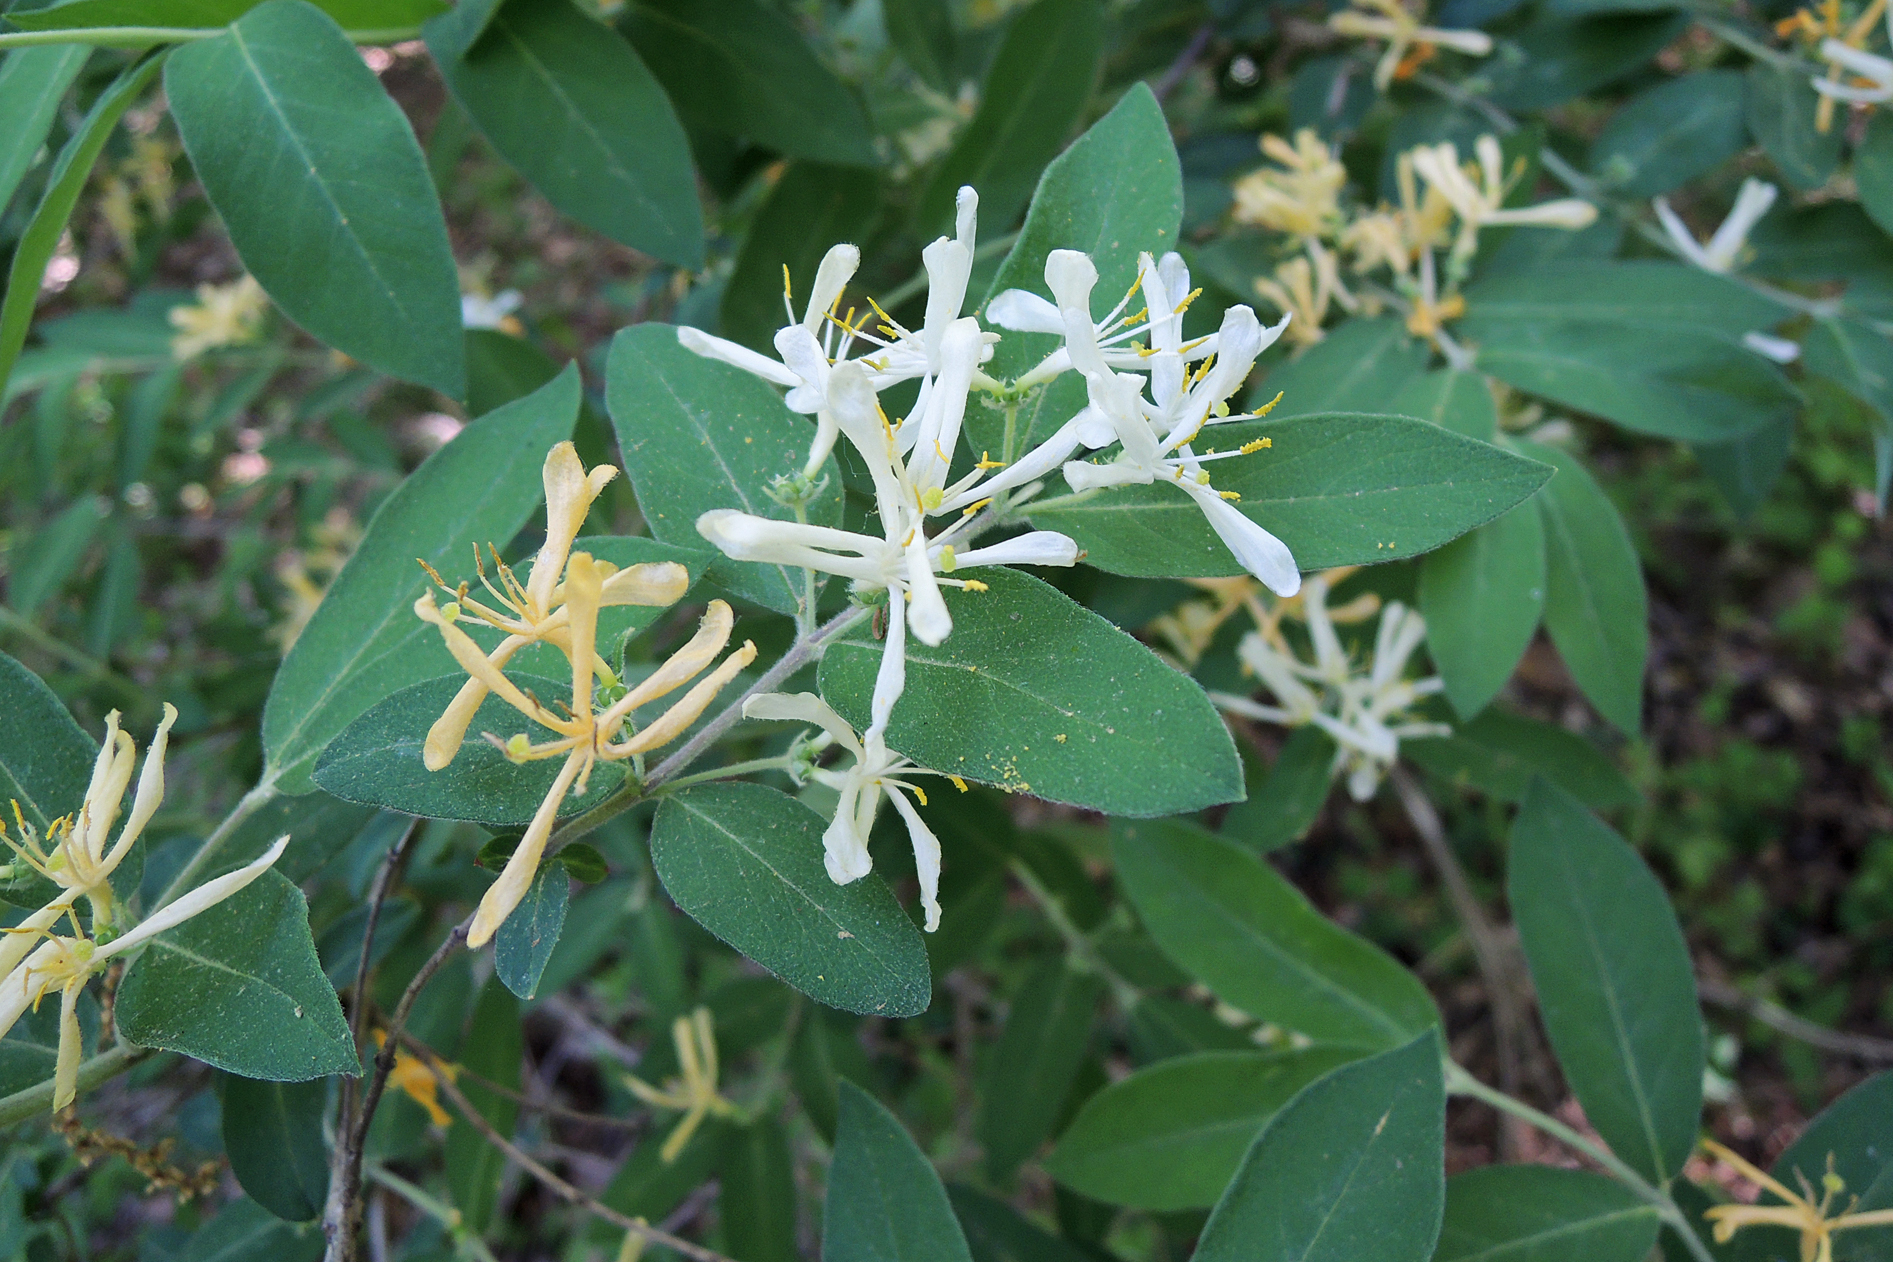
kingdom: Plantae
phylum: Tracheophyta
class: Magnoliopsida
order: Dipsacales
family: Caprifoliaceae
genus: Lonicera
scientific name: Lonicera
